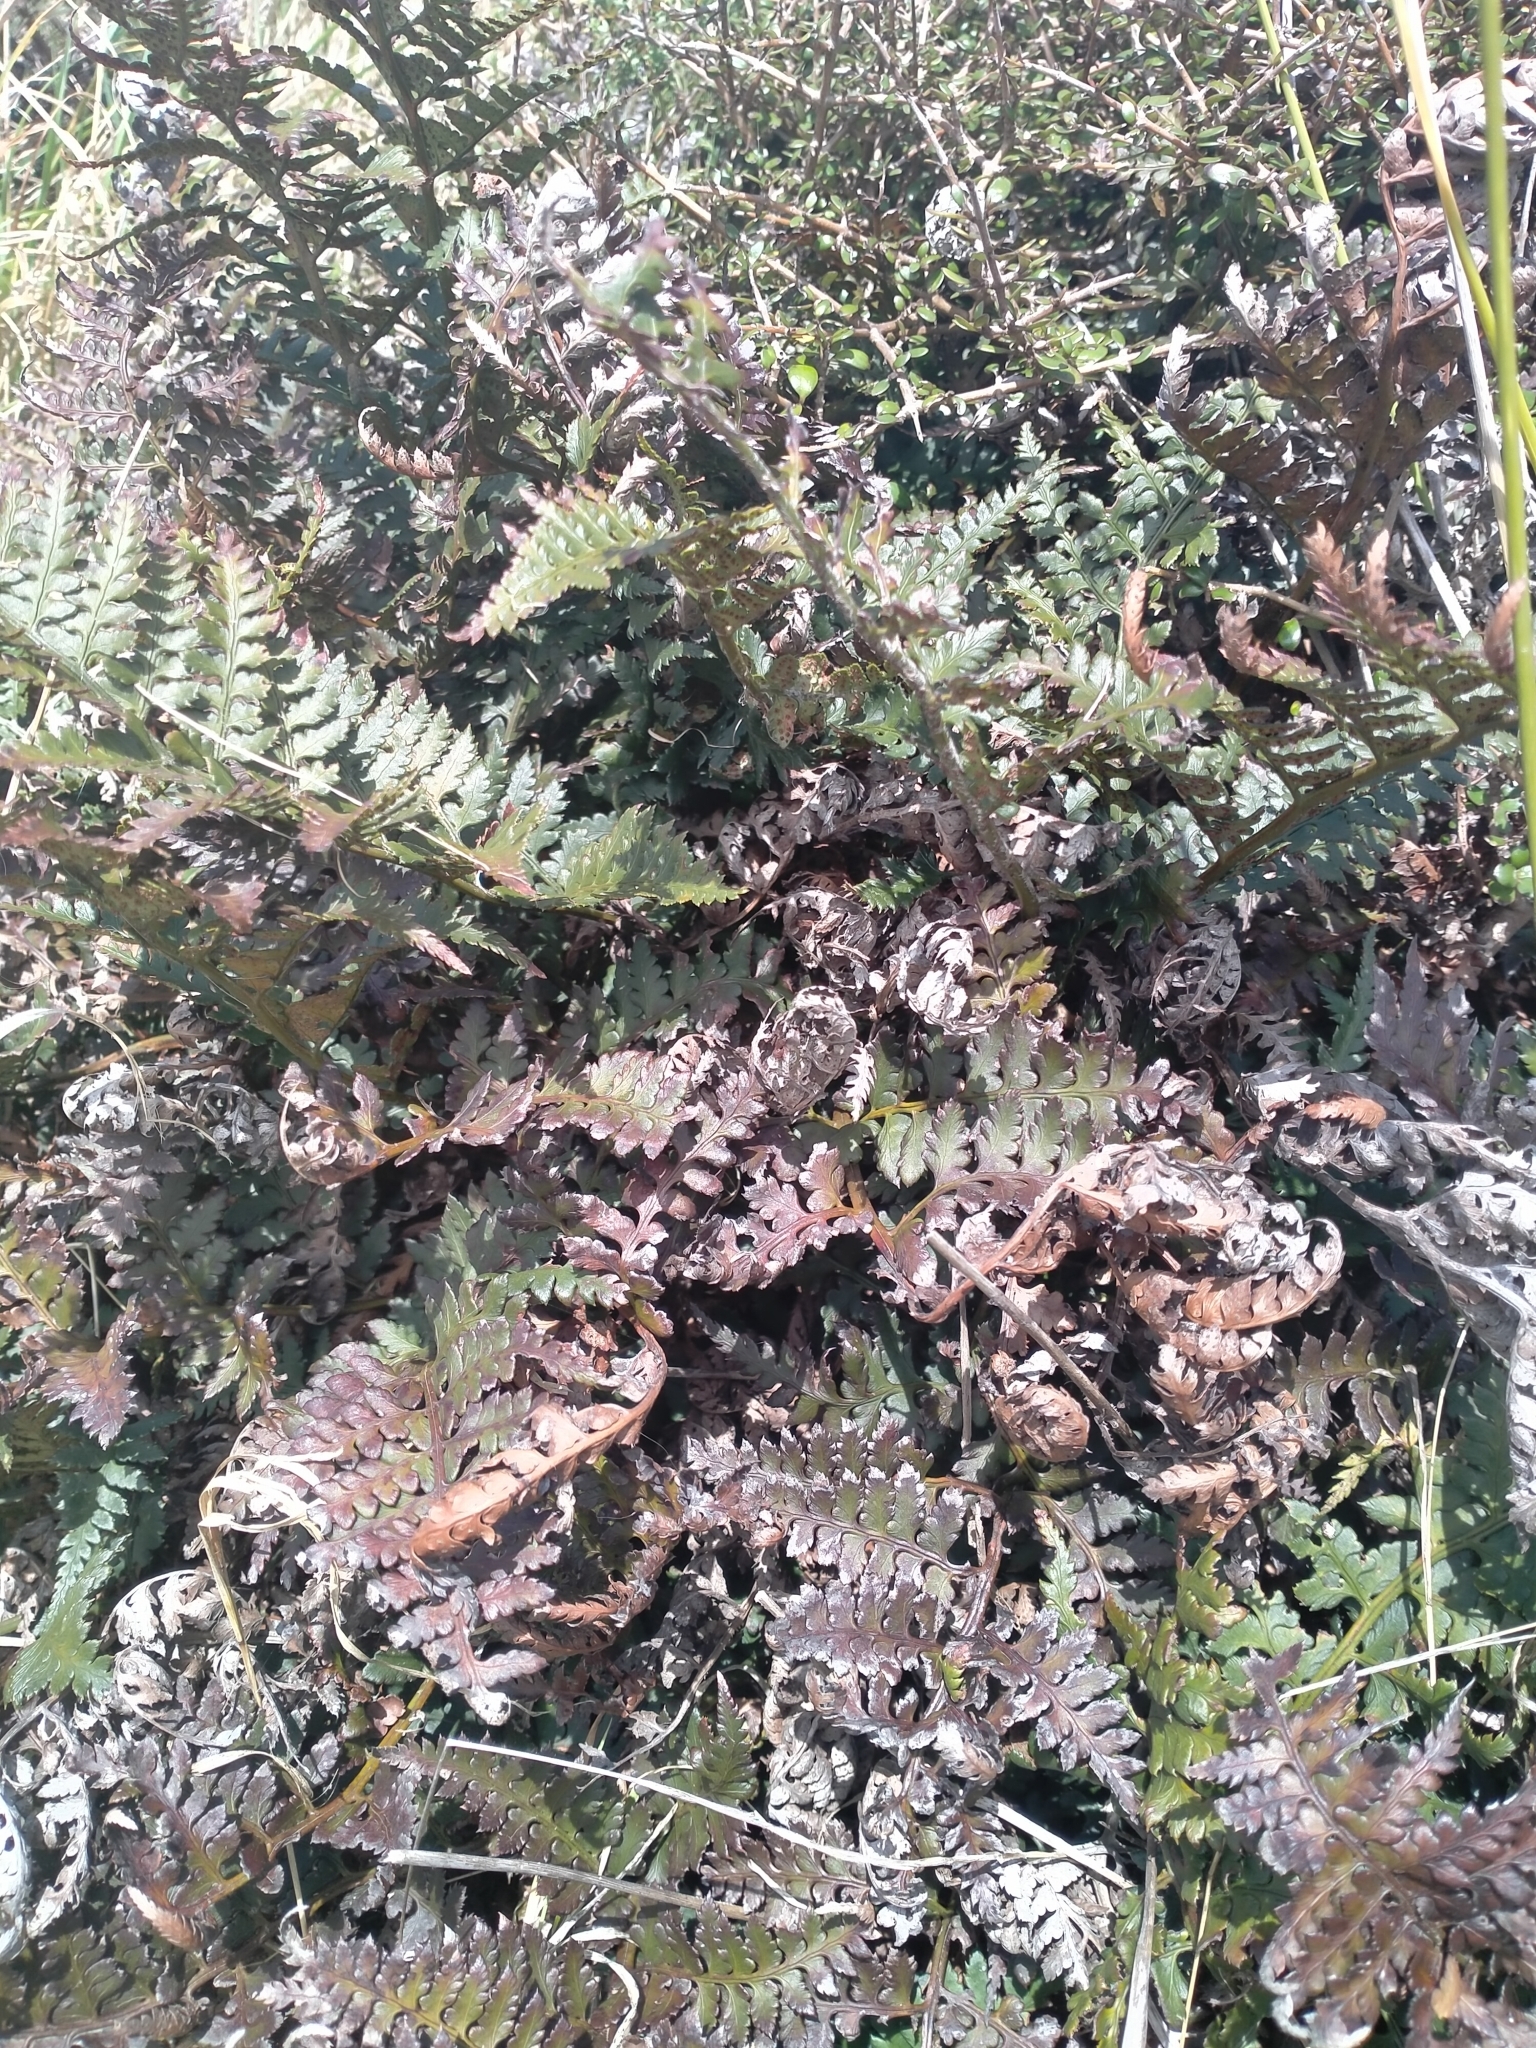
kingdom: Plantae
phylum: Tracheophyta
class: Polypodiopsida
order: Polypodiales
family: Dryopteridaceae
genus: Polystichum
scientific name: Polystichum oculatum
